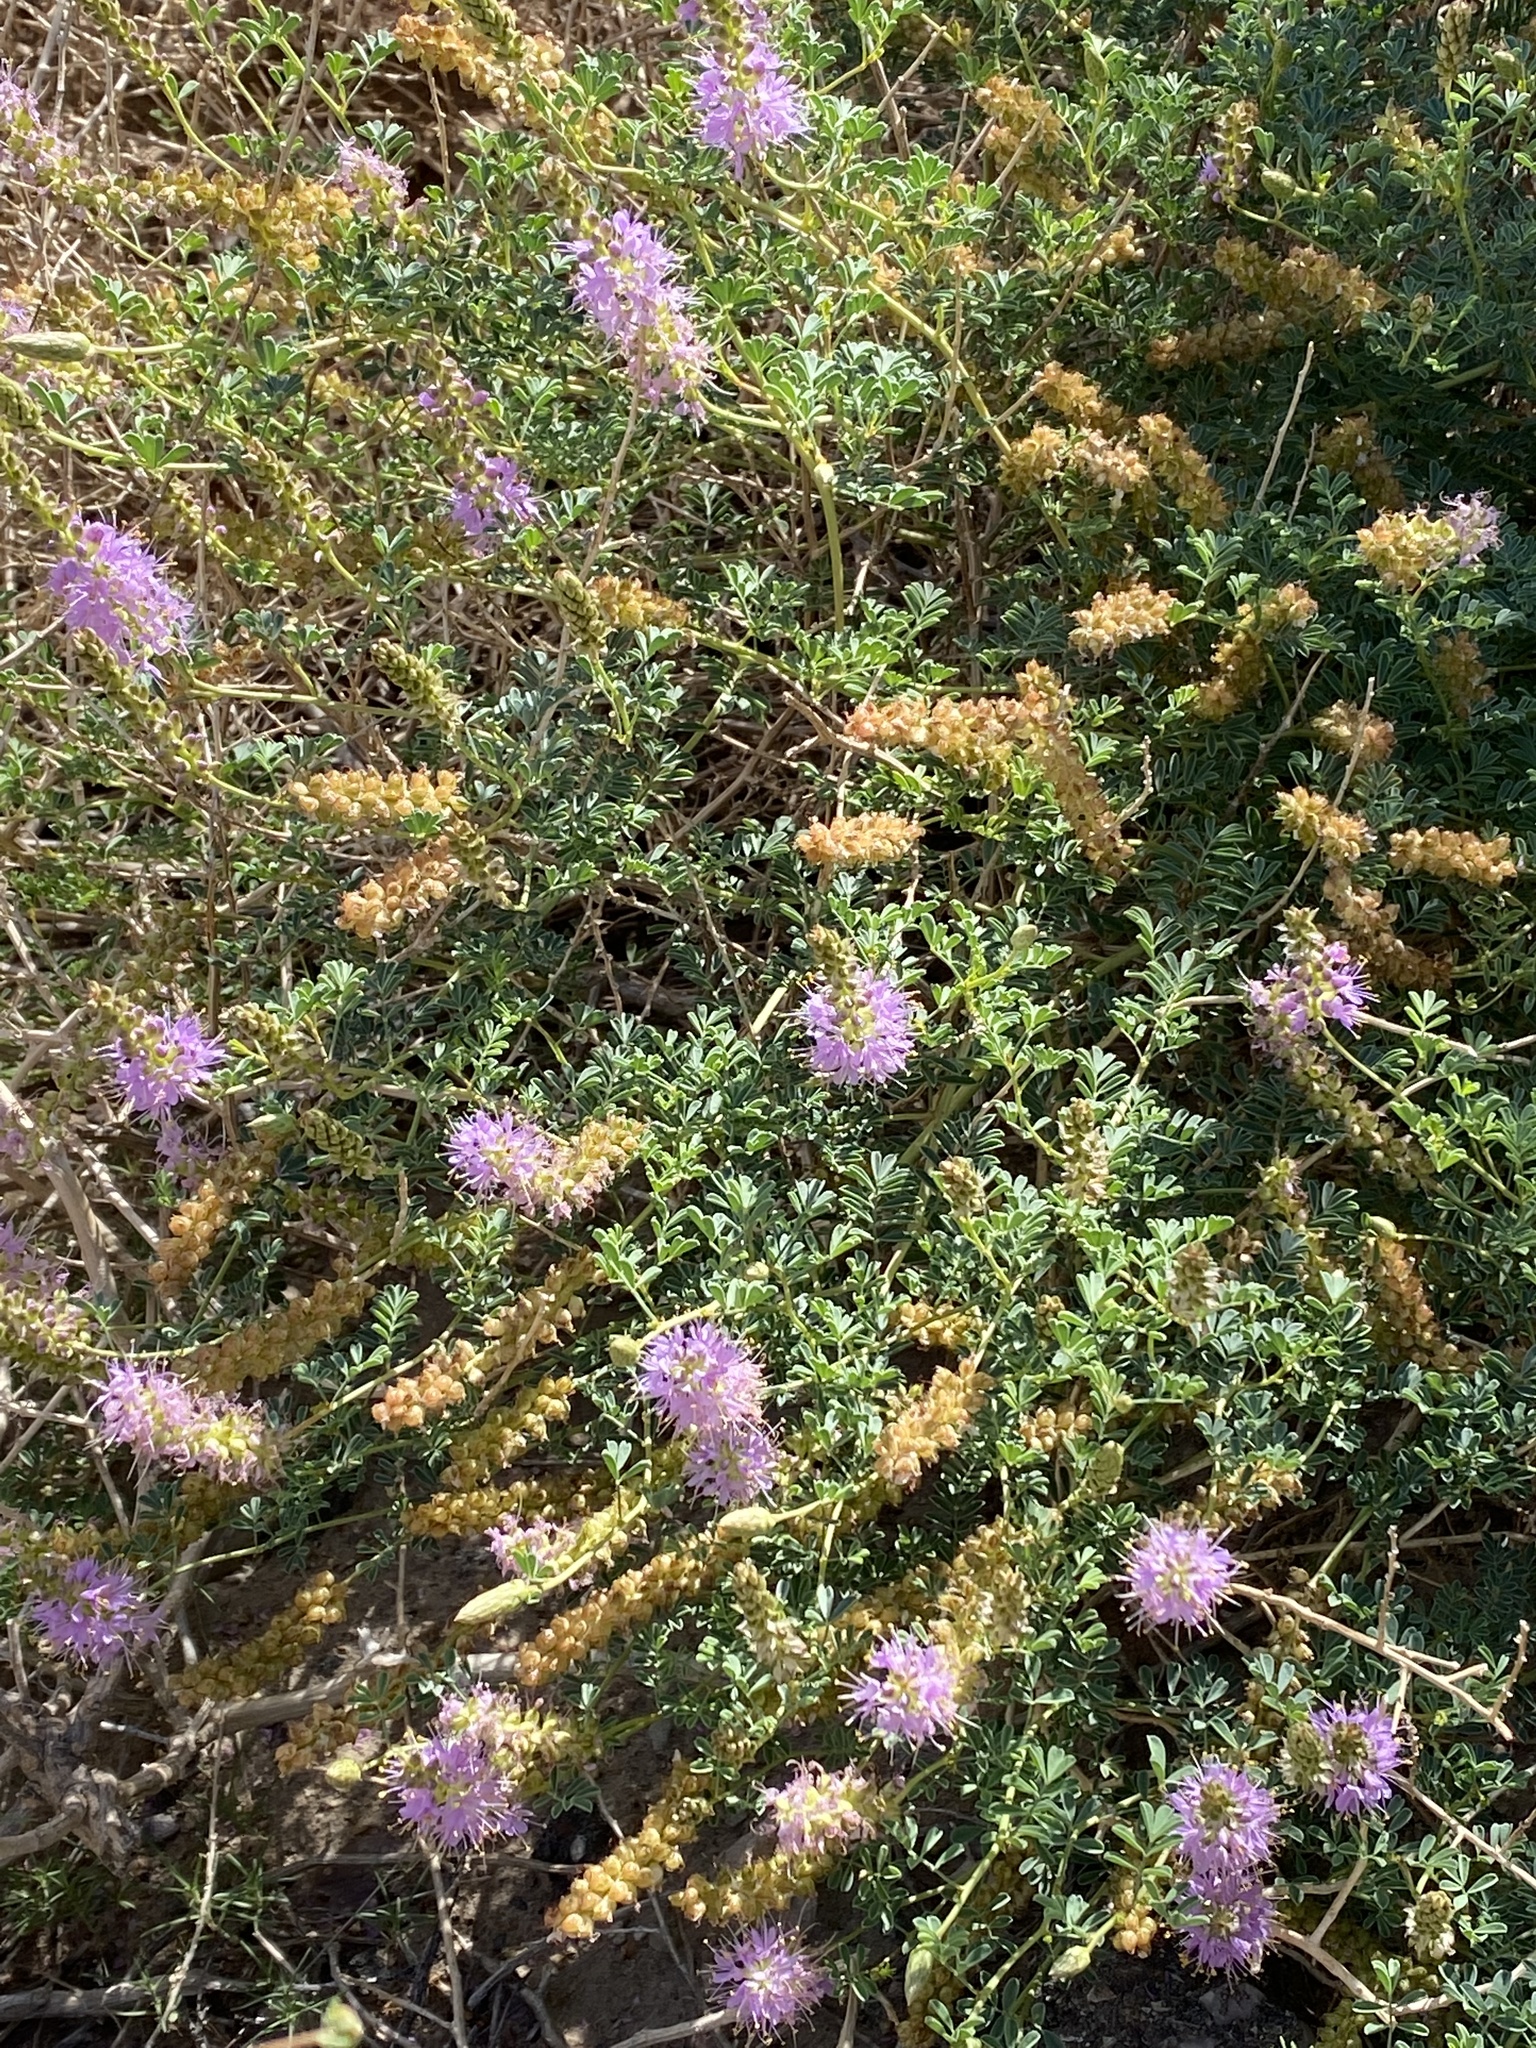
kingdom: Plantae
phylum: Tracheophyta
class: Magnoliopsida
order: Fabales
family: Fabaceae
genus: Dalea
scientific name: Dalea scariosa
